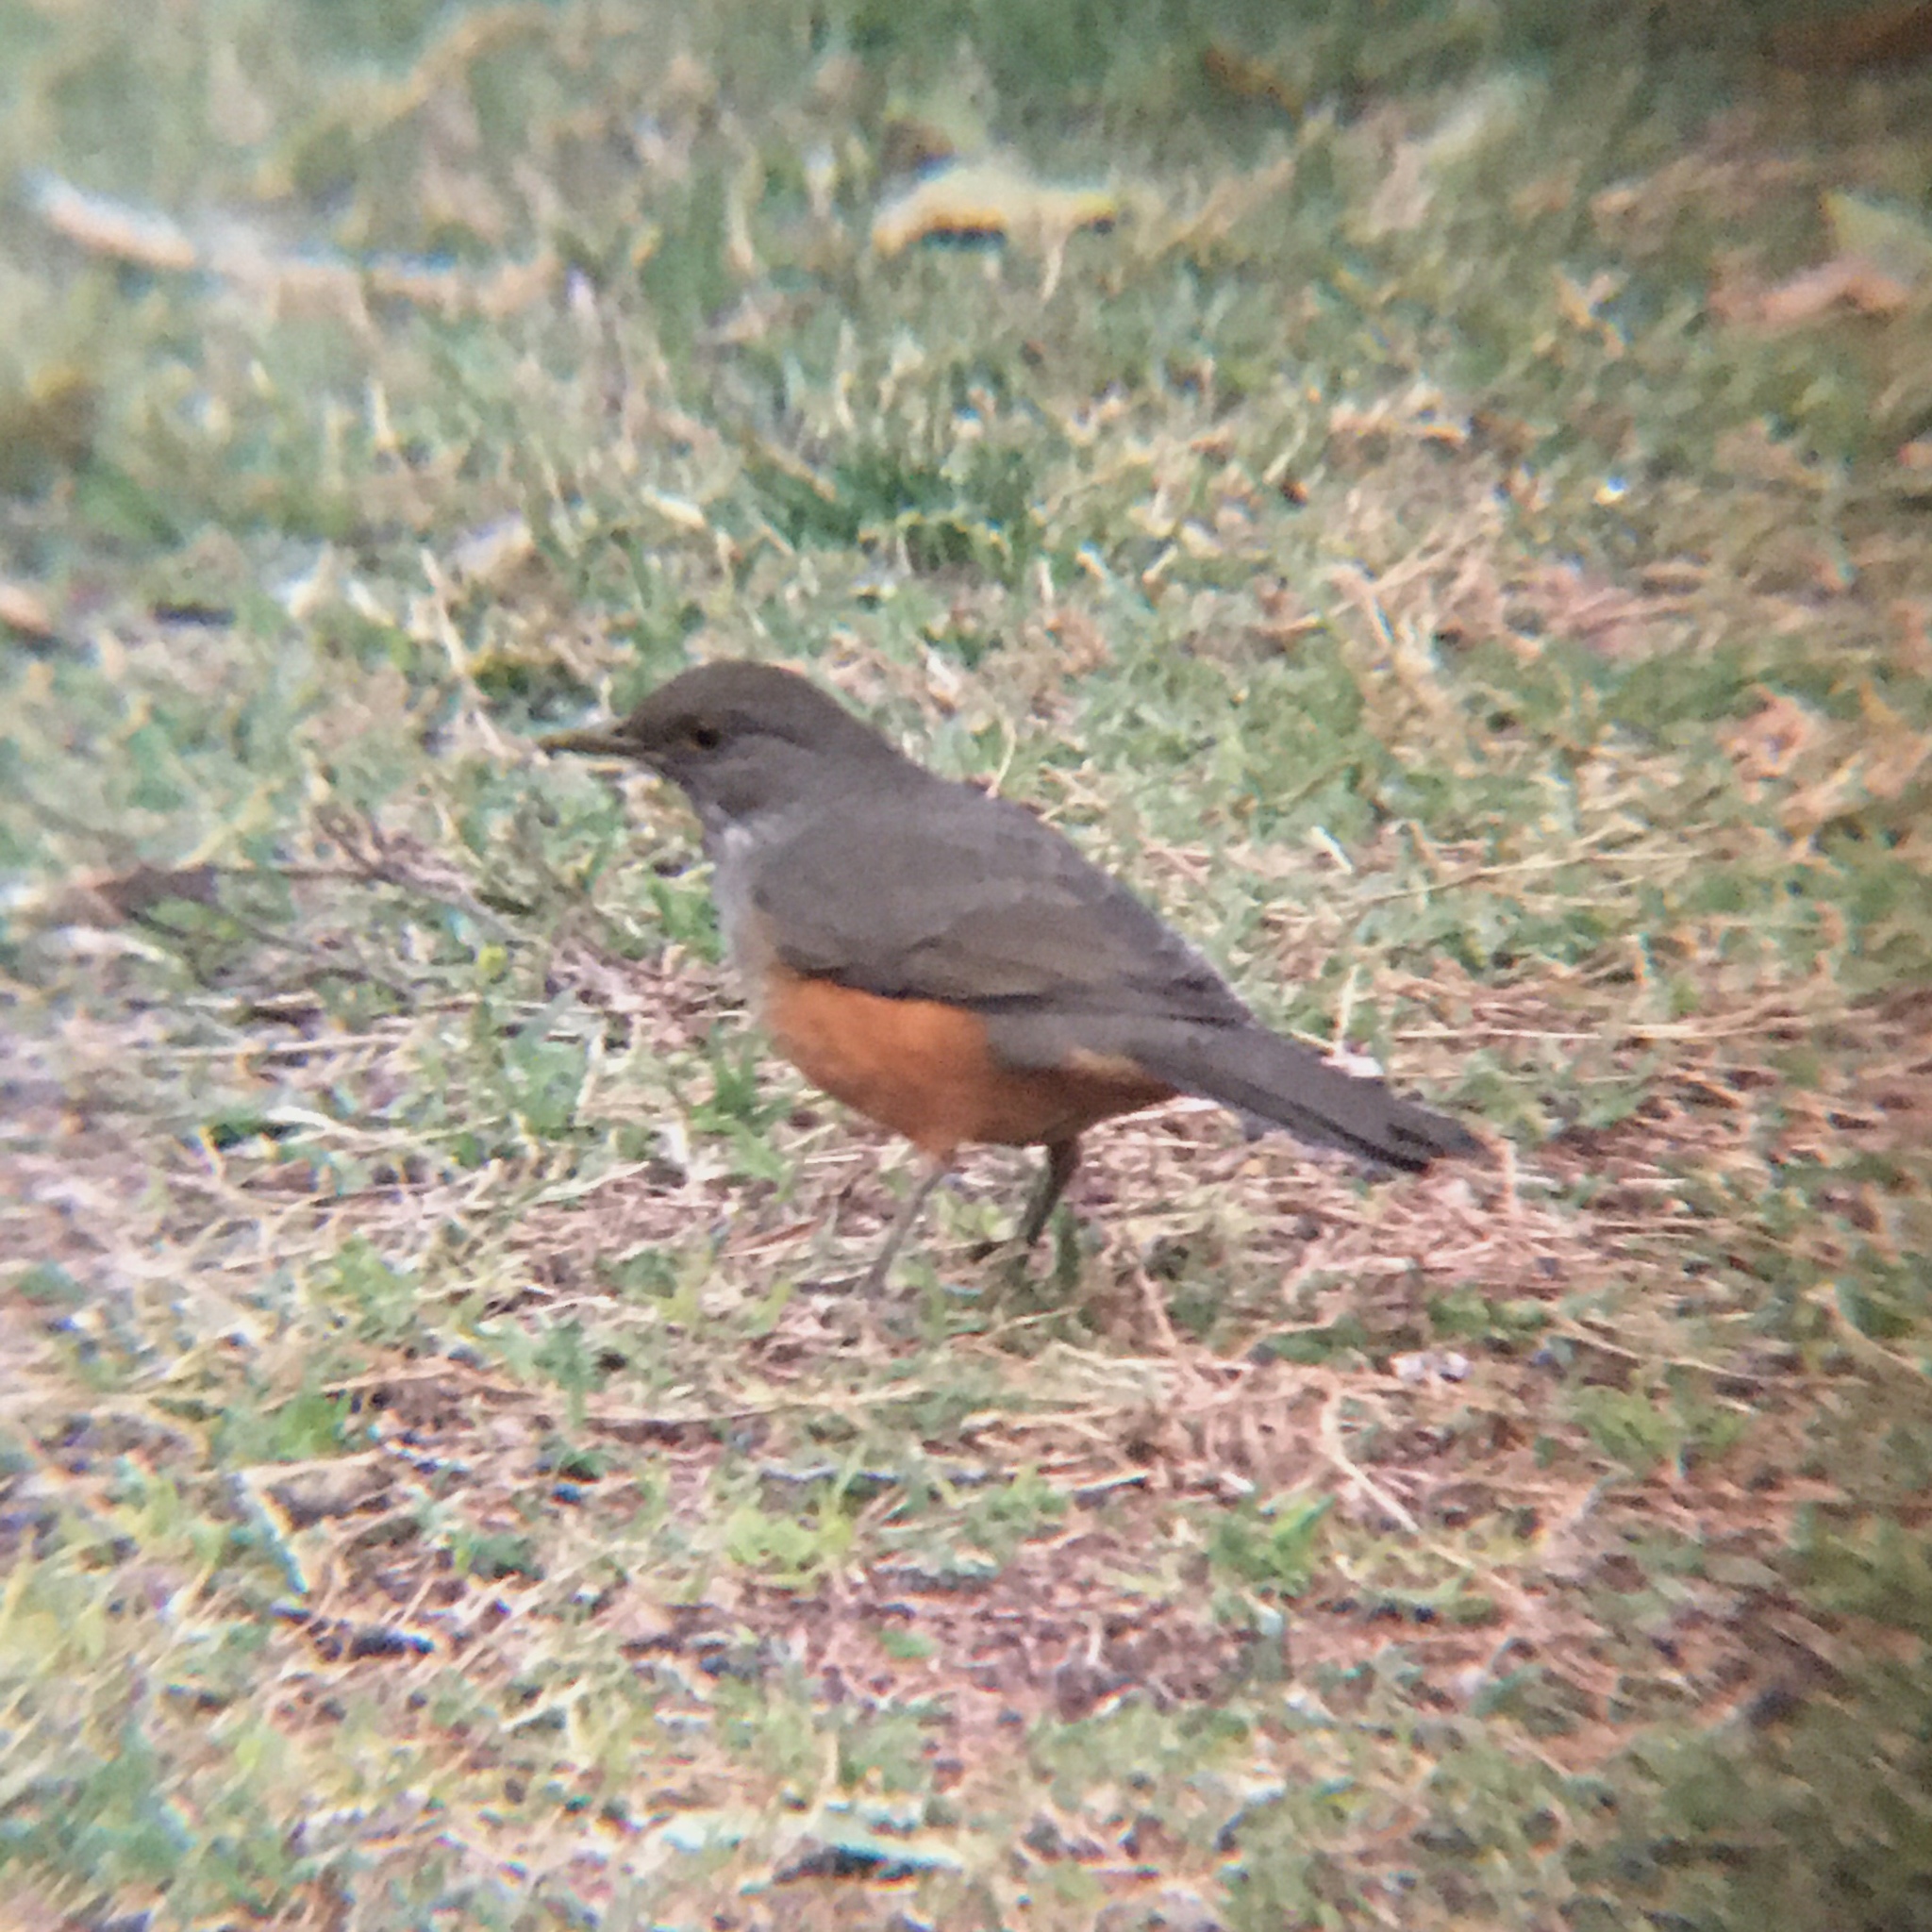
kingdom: Animalia
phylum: Chordata
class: Aves
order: Passeriformes
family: Turdidae
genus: Turdus
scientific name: Turdus rufiventris
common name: Rufous-bellied thrush
